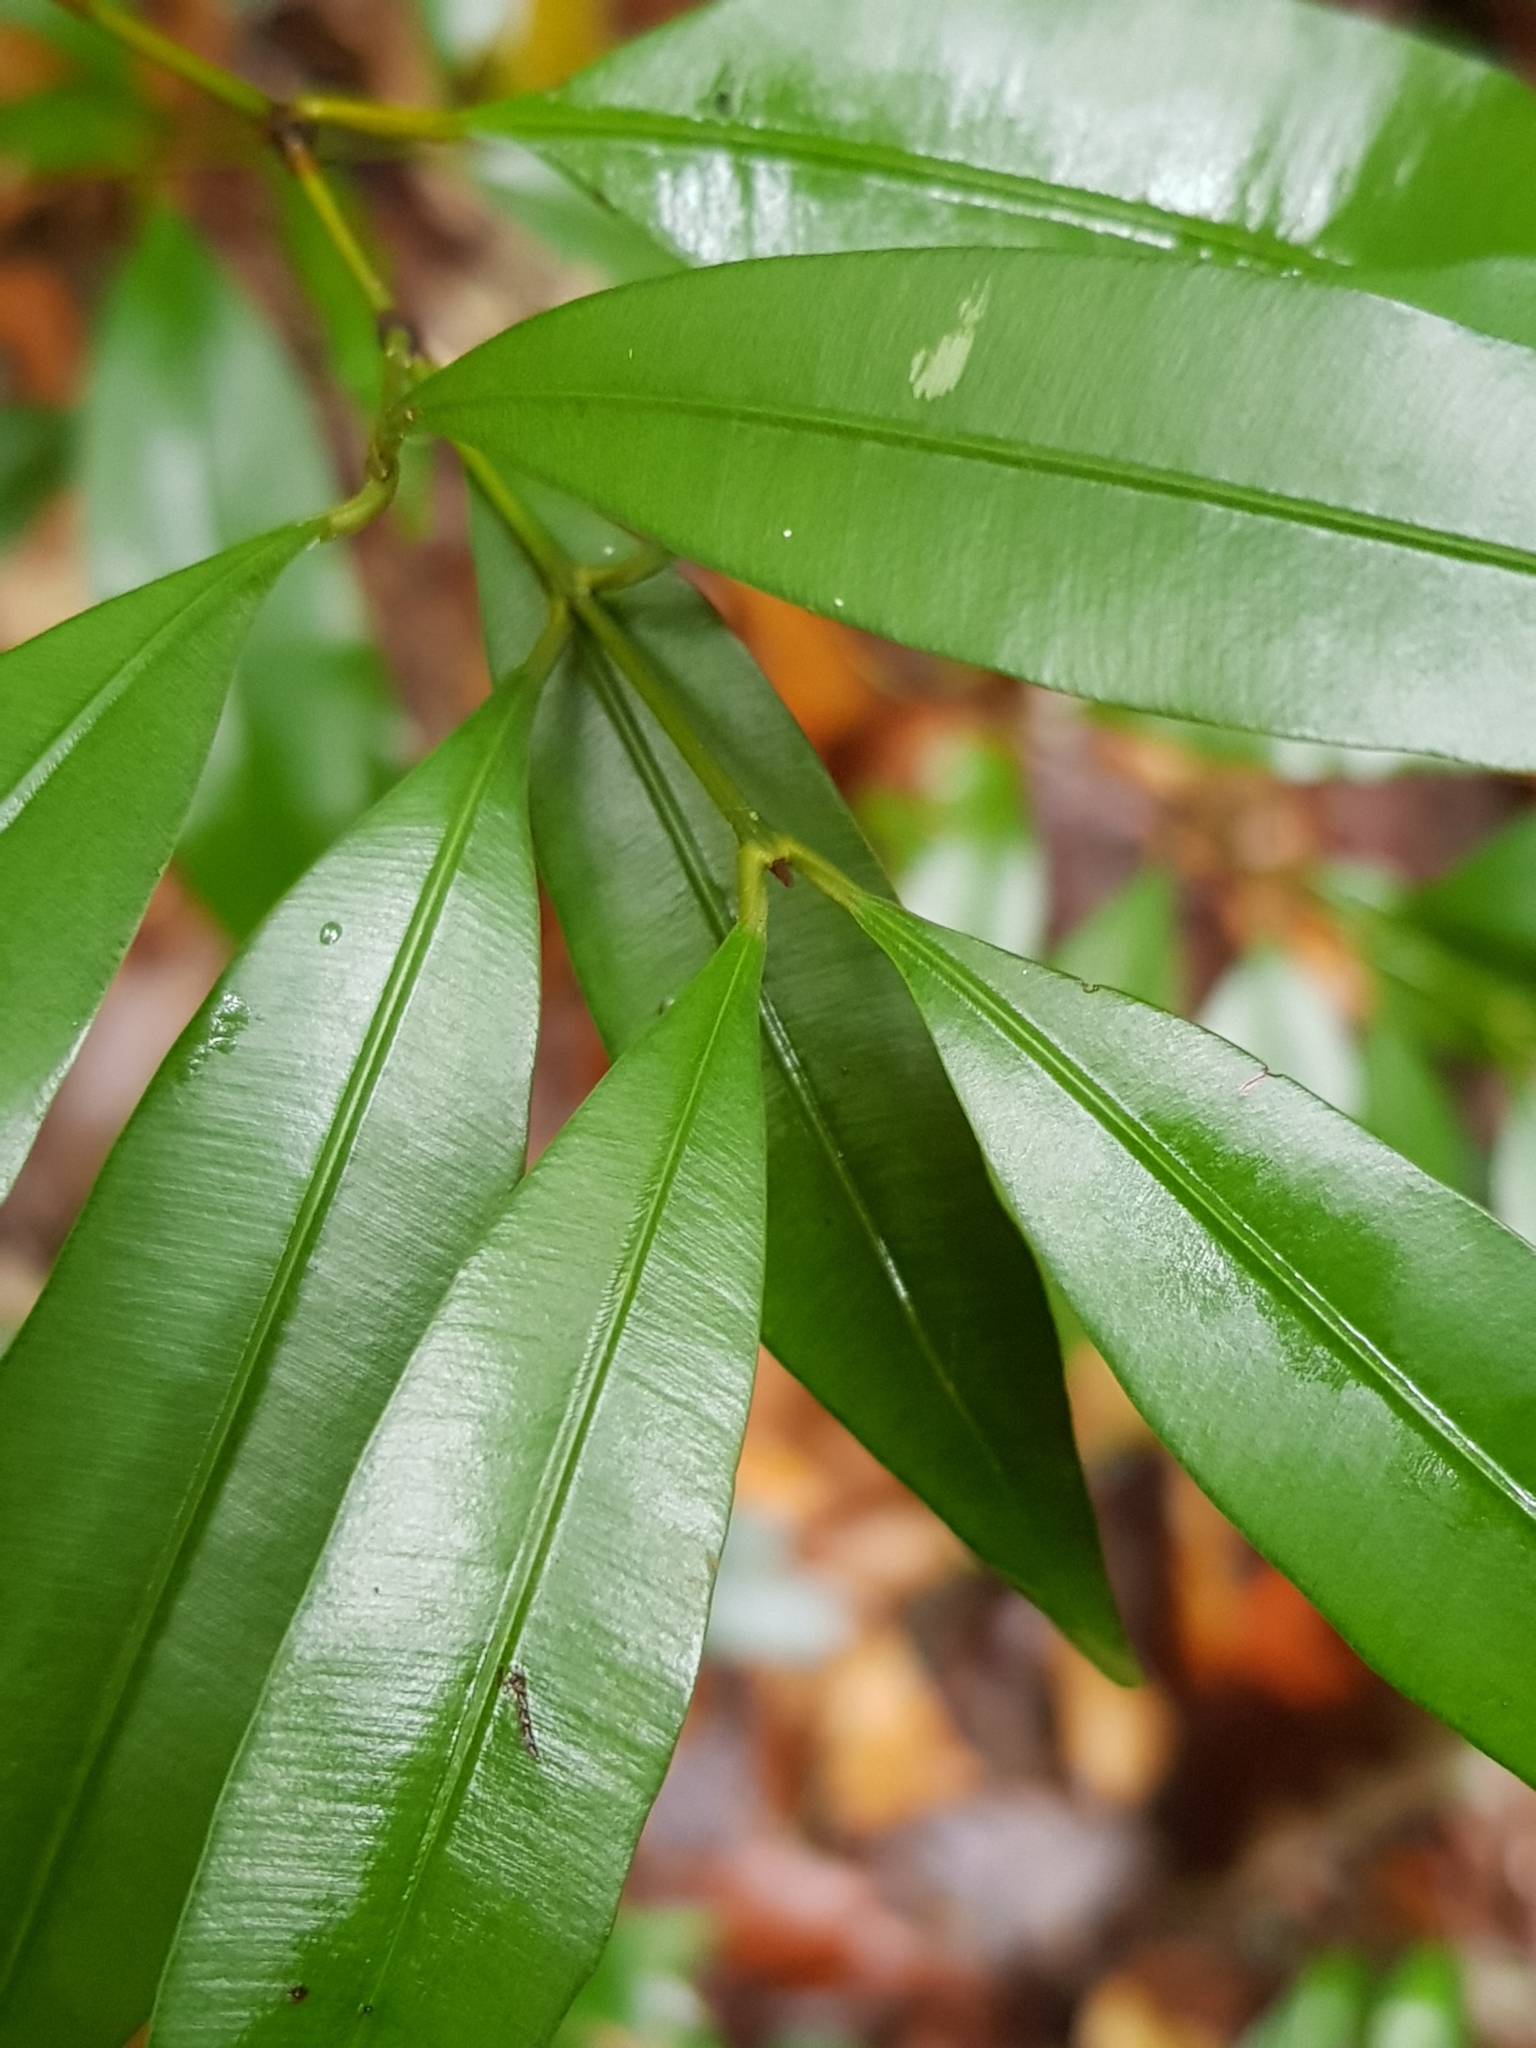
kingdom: Plantae
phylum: Tracheophyta
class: Magnoliopsida
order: Malpighiales
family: Calophyllaceae
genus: Calophyllum
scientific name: Calophyllum pulcherrimum
